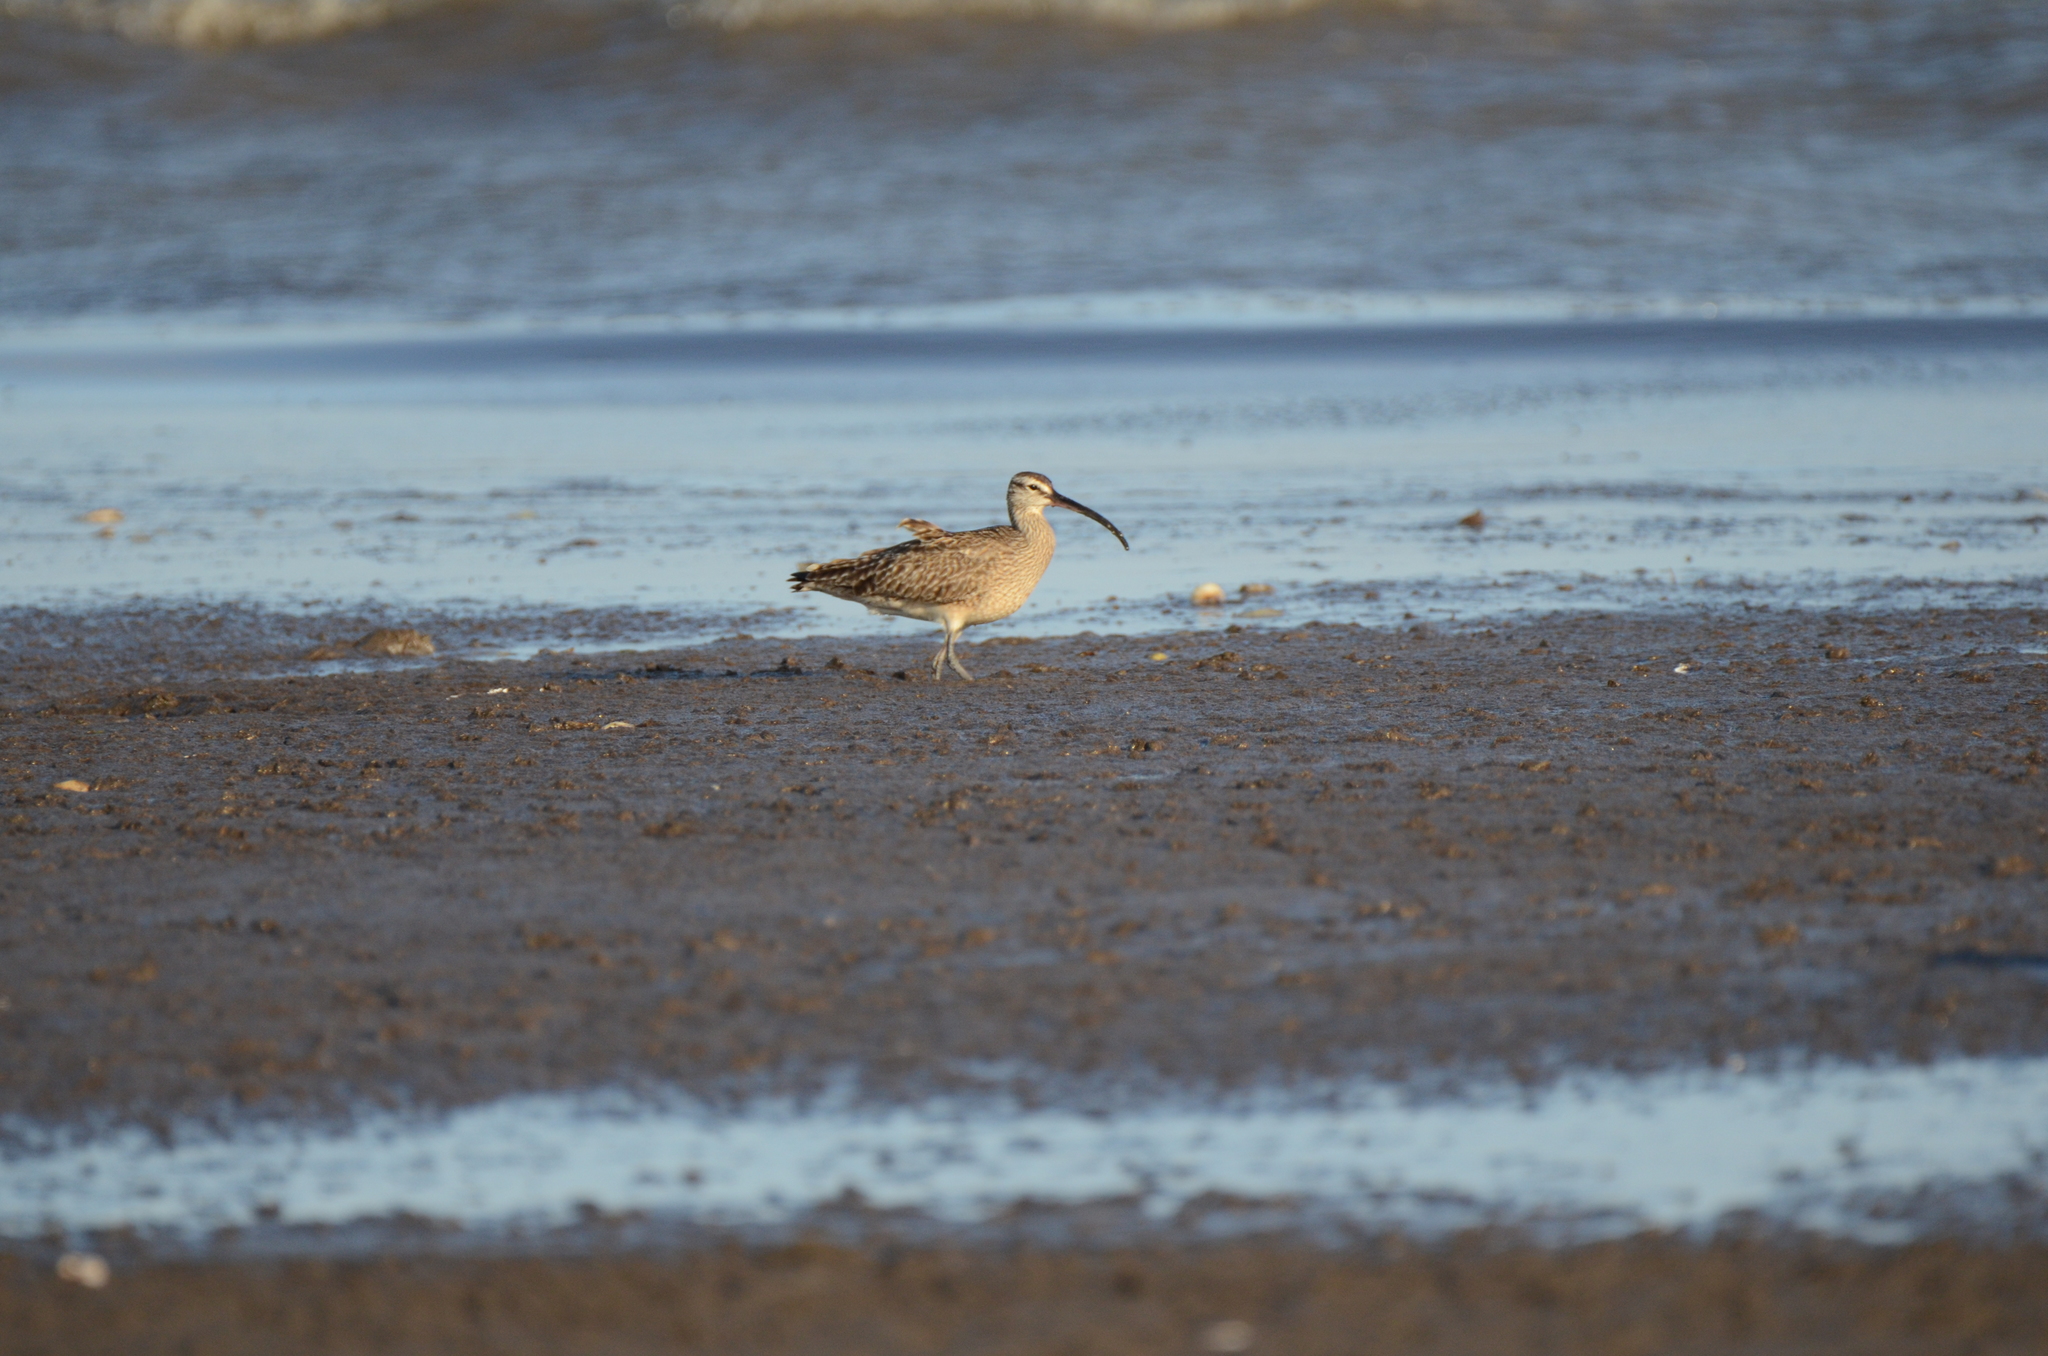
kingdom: Animalia
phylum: Chordata
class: Aves
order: Charadriiformes
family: Scolopacidae
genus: Numenius
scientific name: Numenius phaeopus
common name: Whimbrel
